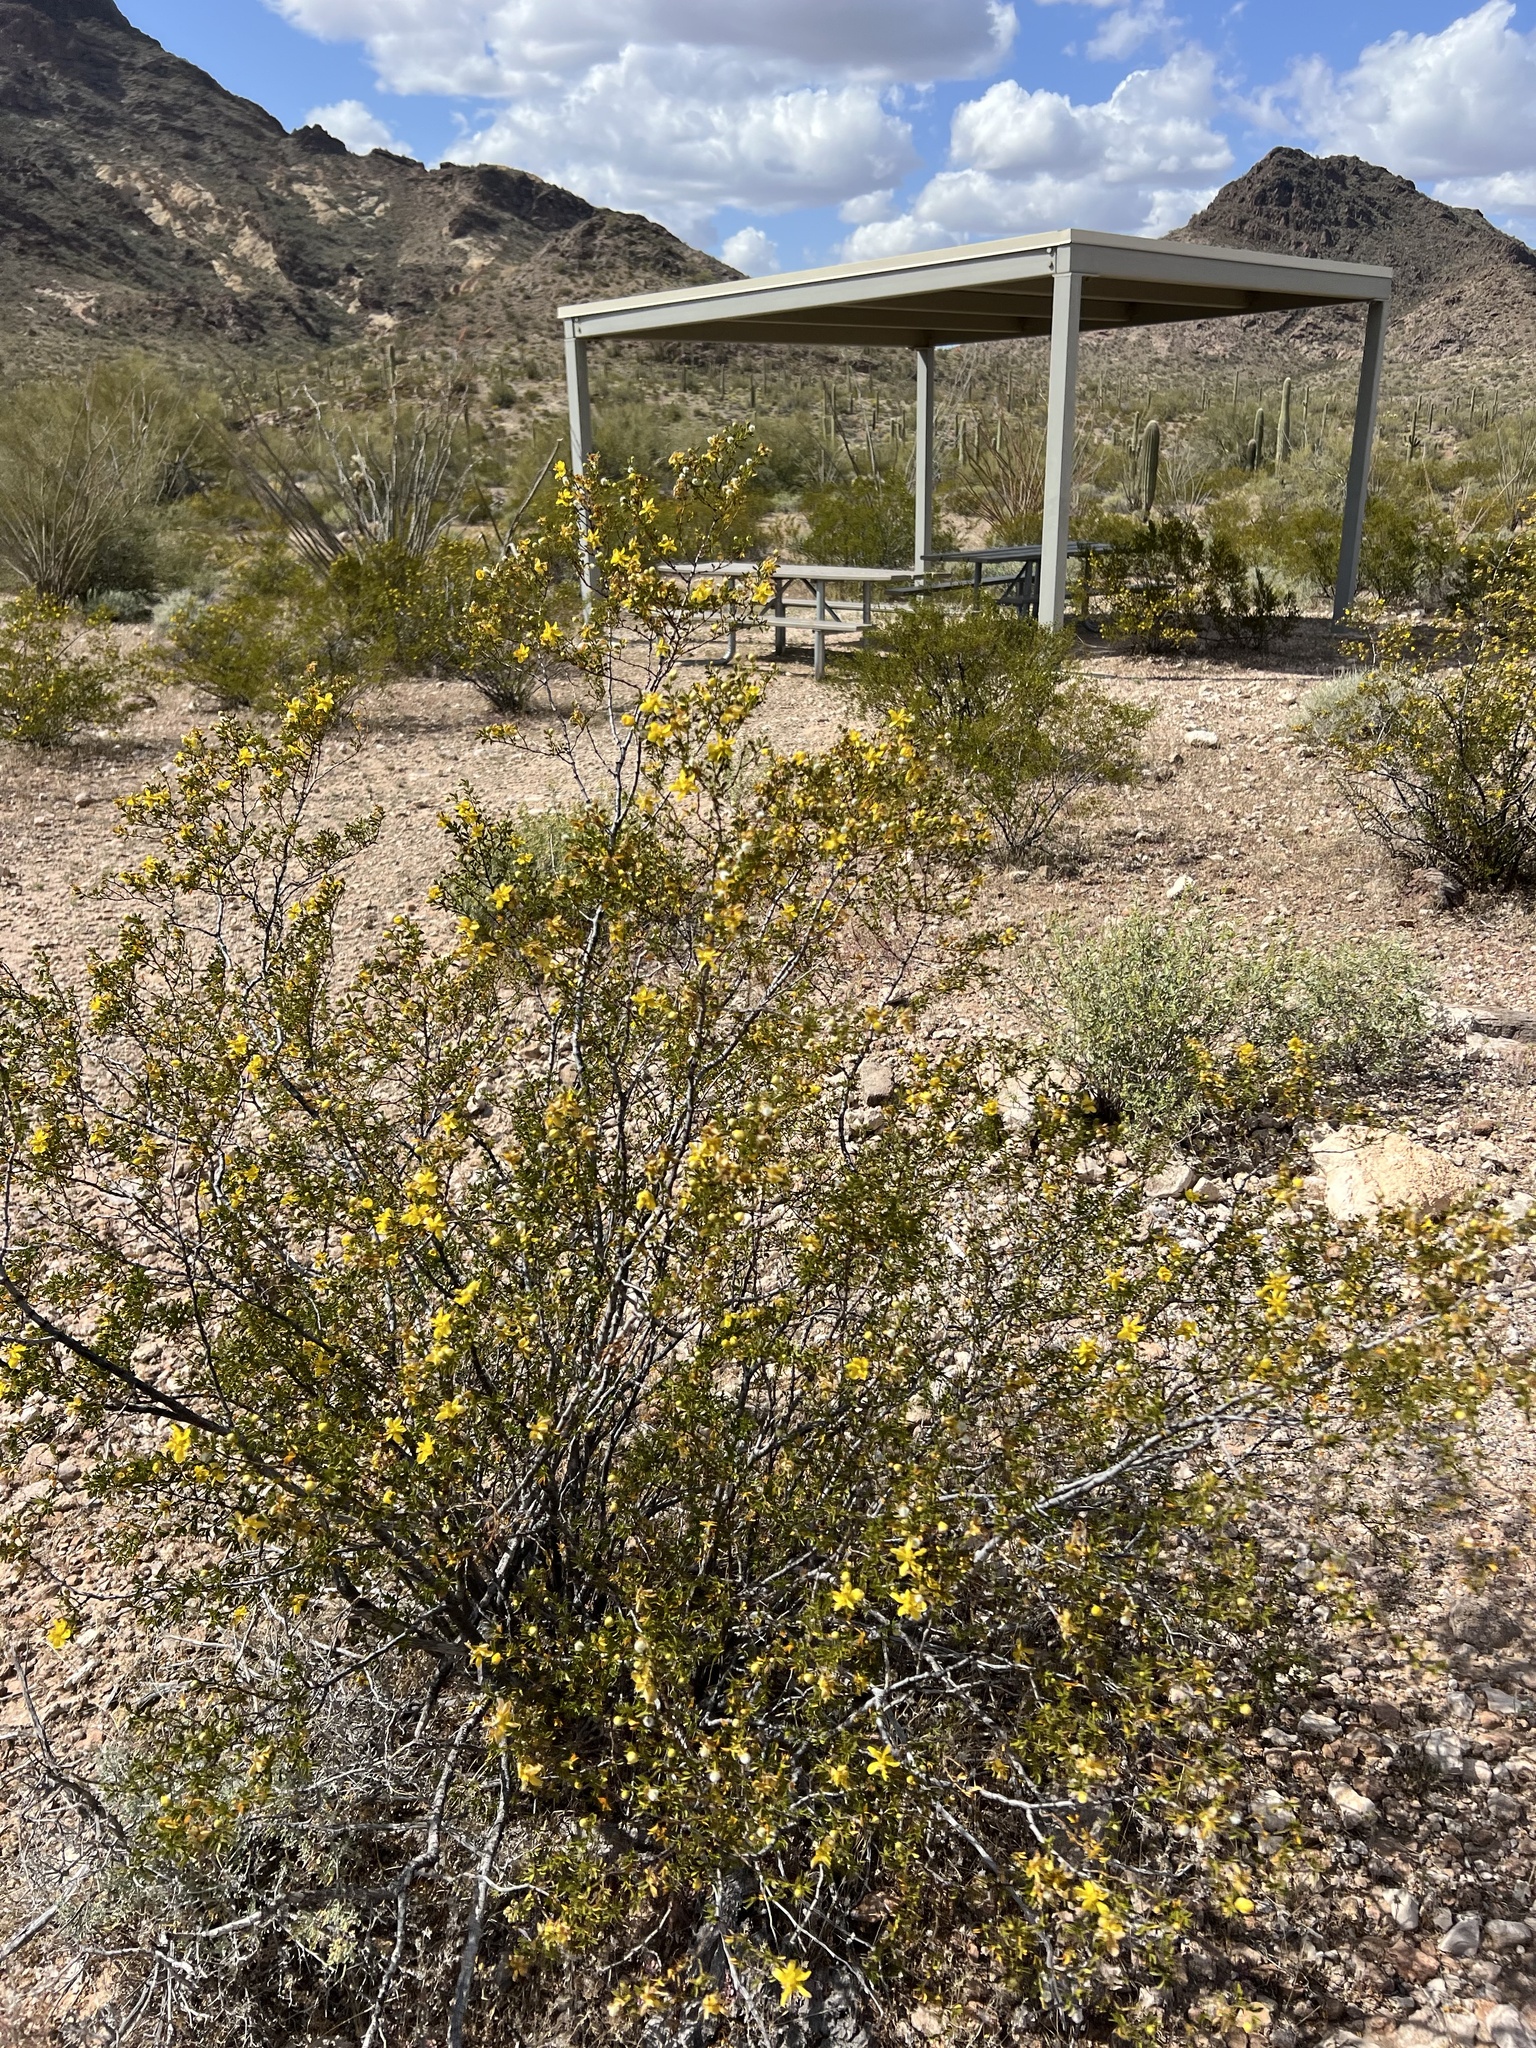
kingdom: Plantae
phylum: Tracheophyta
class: Magnoliopsida
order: Zygophyllales
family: Zygophyllaceae
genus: Larrea
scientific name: Larrea tridentata
